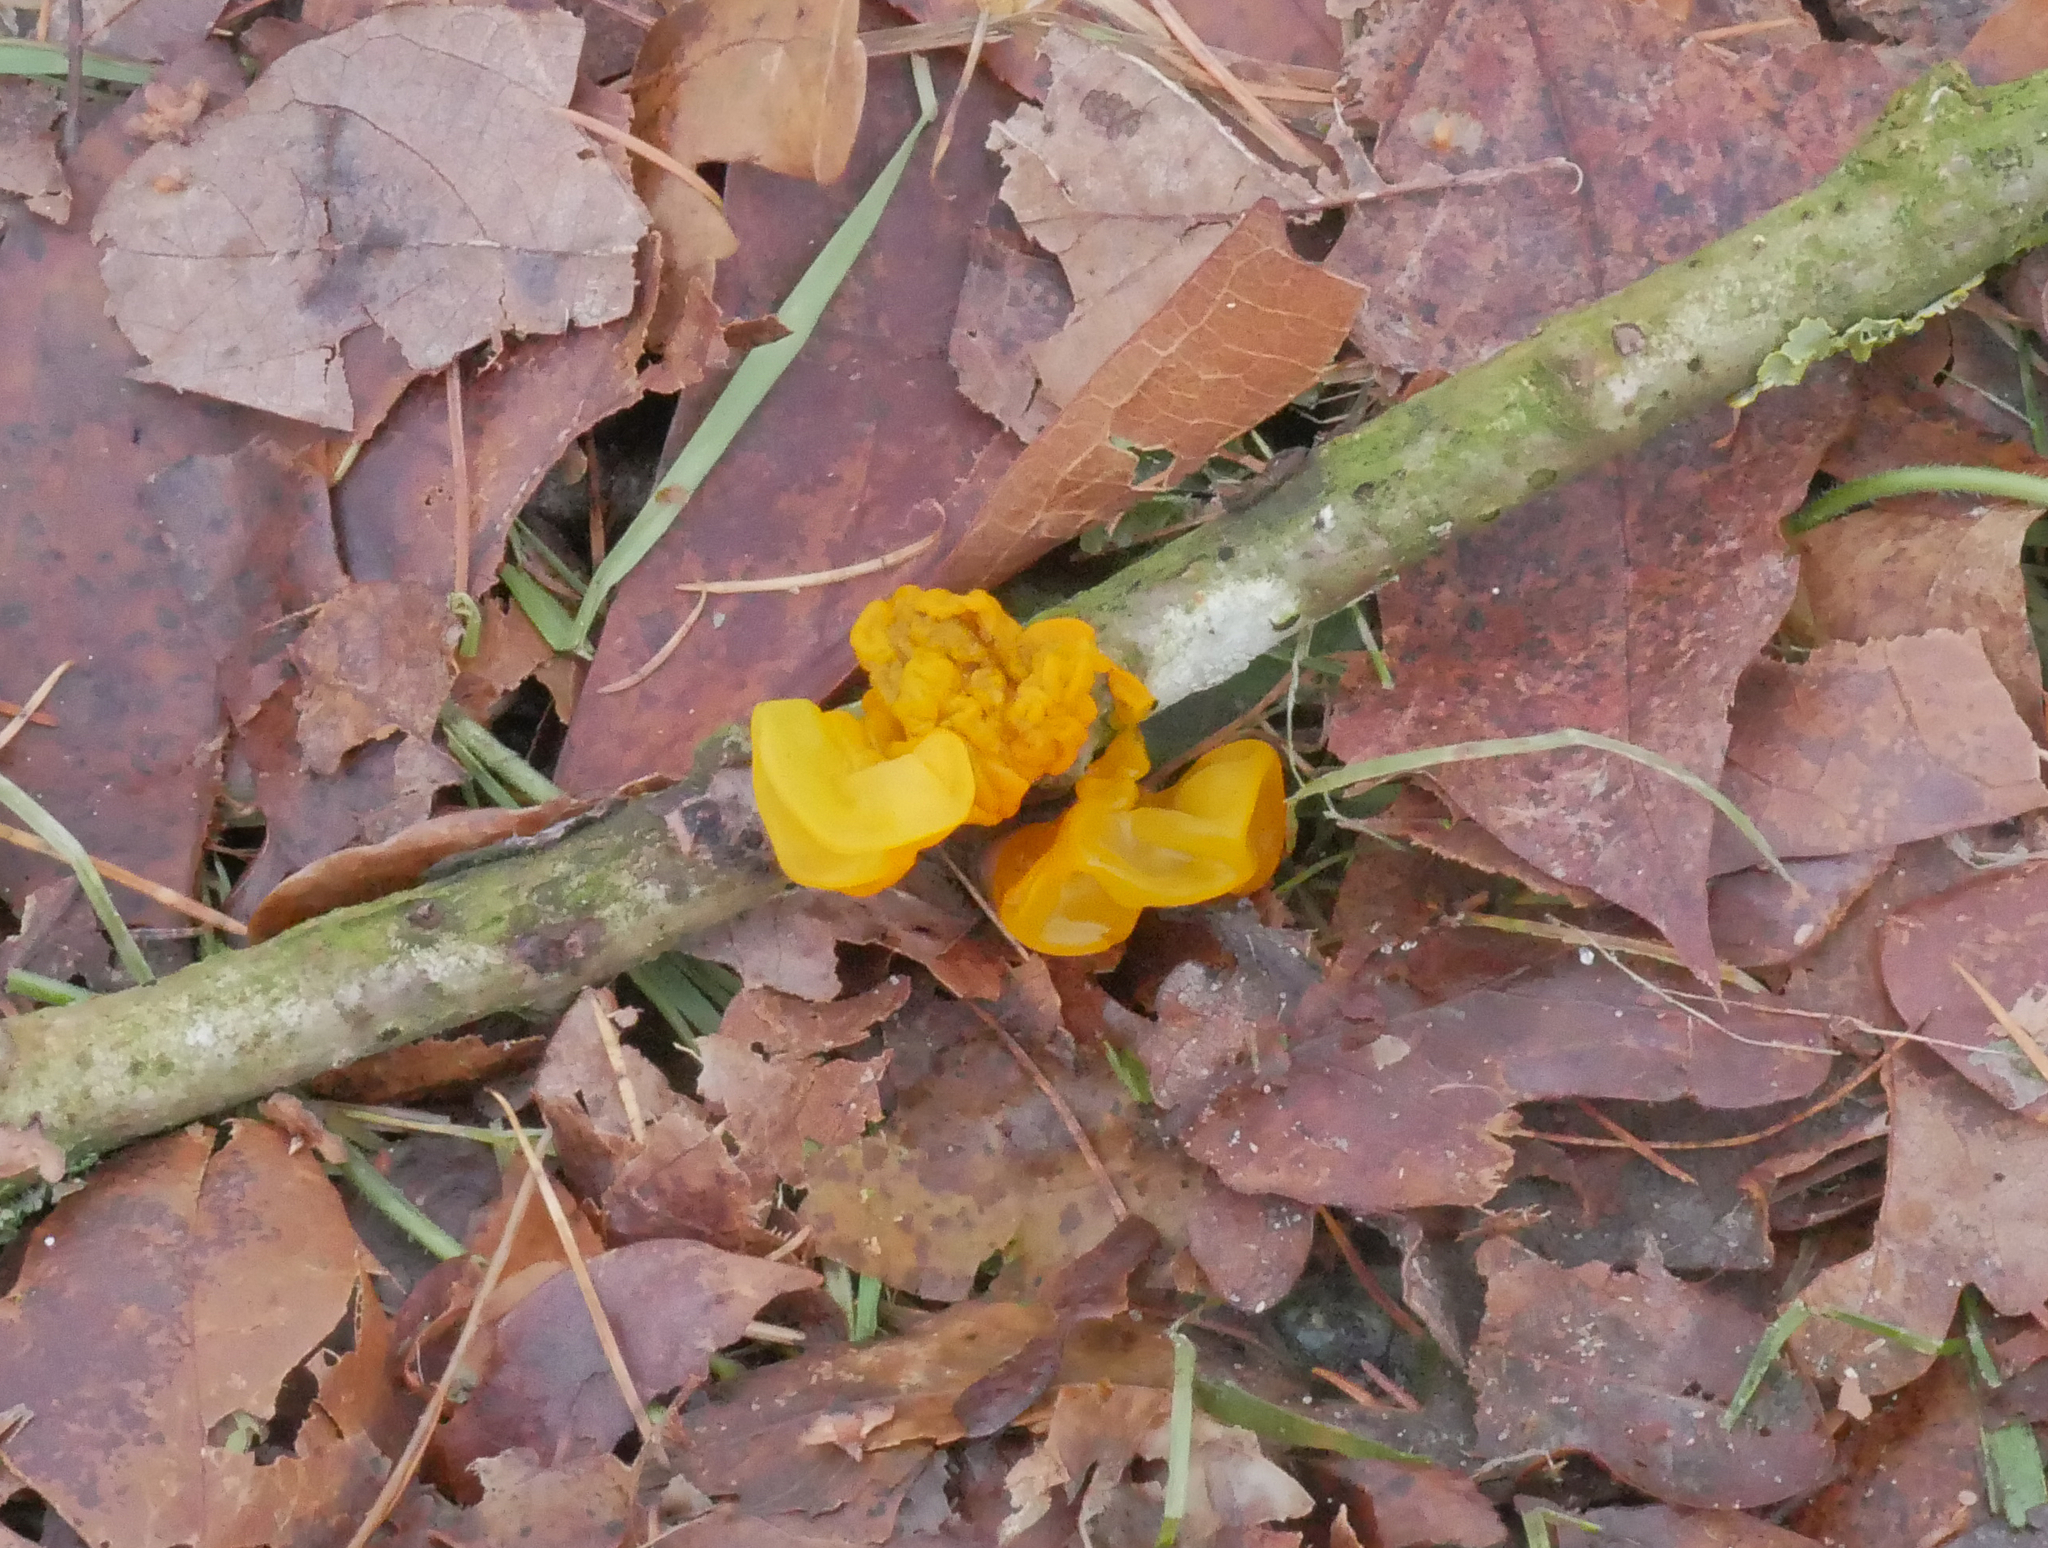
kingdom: Fungi
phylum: Basidiomycota
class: Tremellomycetes
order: Tremellales
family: Tremellaceae
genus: Tremella
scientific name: Tremella mesenterica
